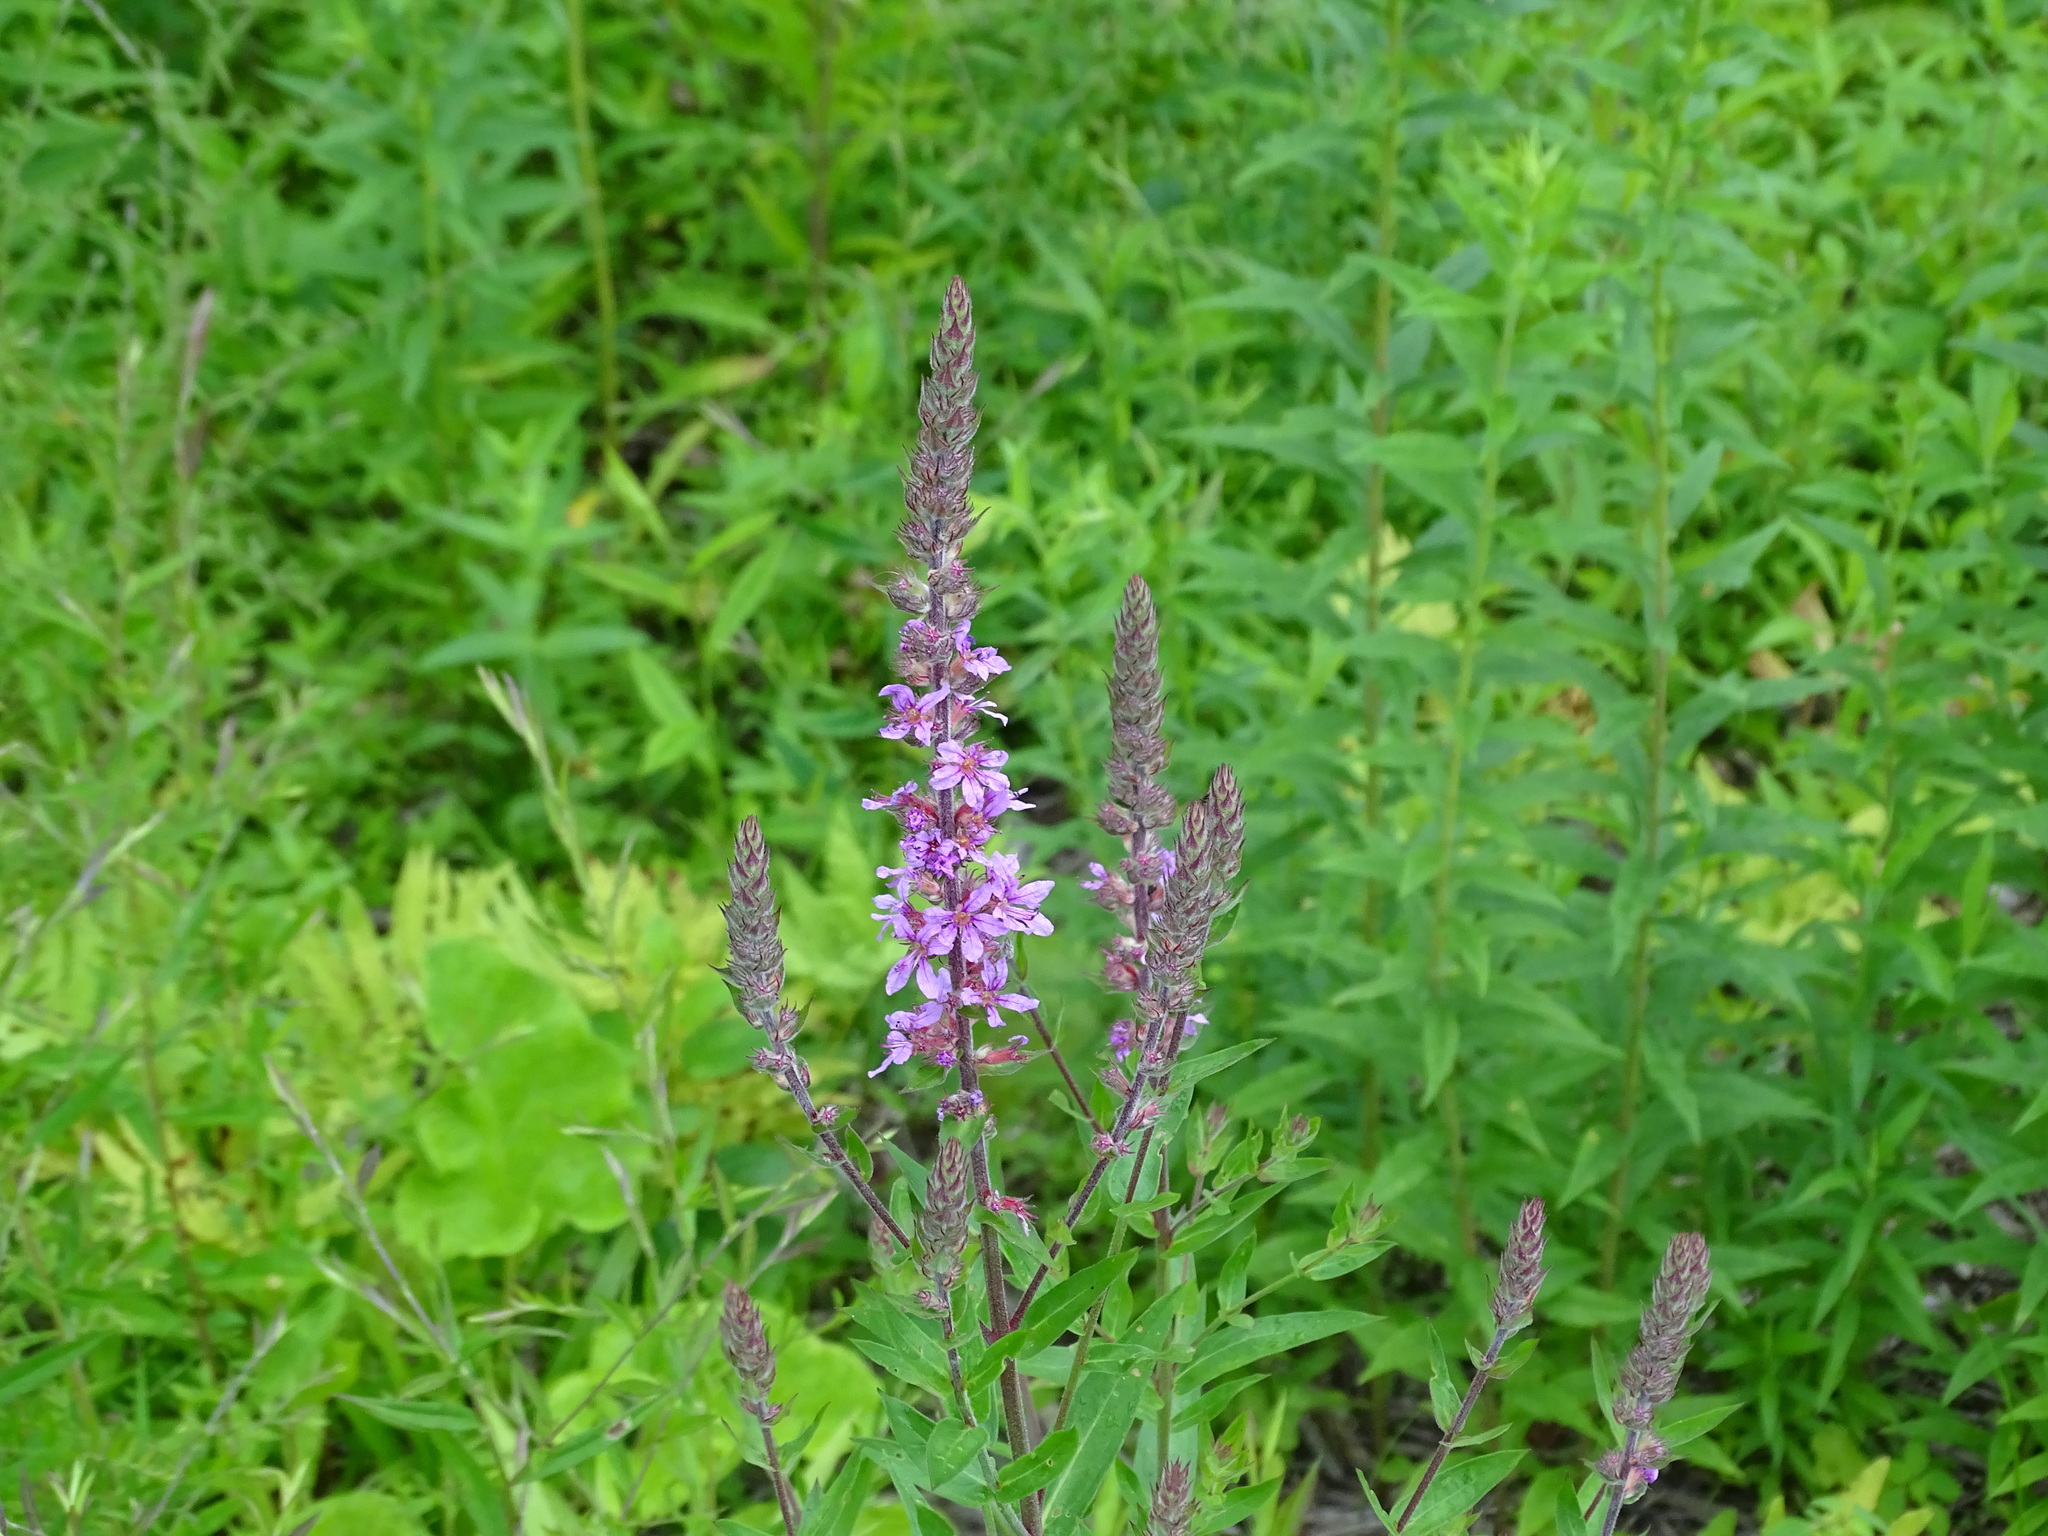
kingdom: Plantae
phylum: Tracheophyta
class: Magnoliopsida
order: Myrtales
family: Lythraceae
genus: Lythrum
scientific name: Lythrum salicaria
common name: Purple loosestrife
